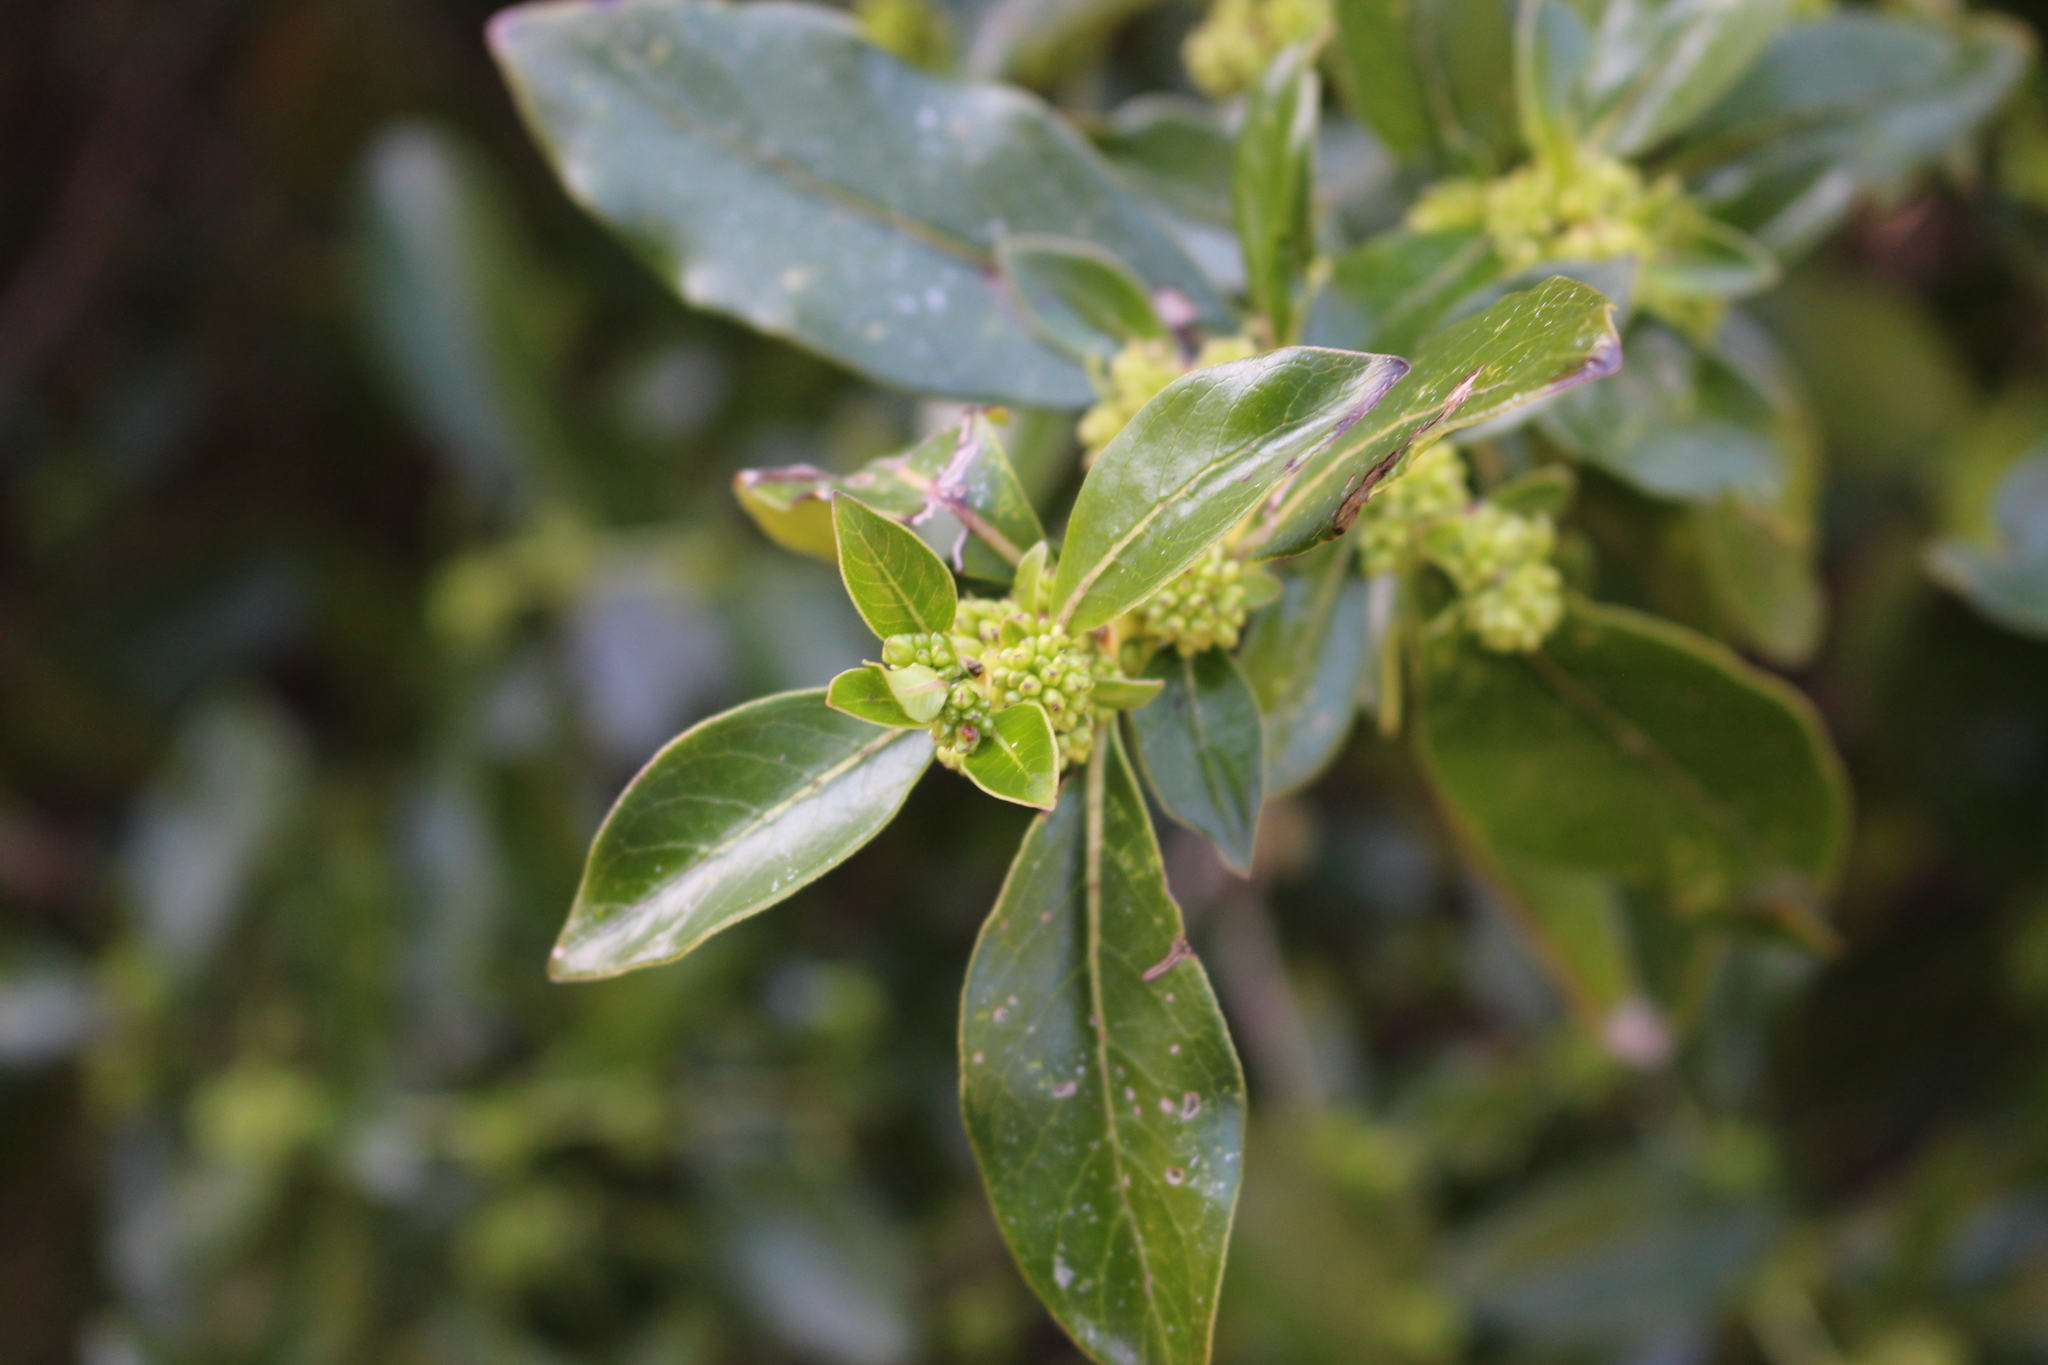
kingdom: Plantae
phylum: Tracheophyta
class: Magnoliopsida
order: Gentianales
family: Rubiaceae
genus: Coprosma
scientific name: Coprosma robusta
